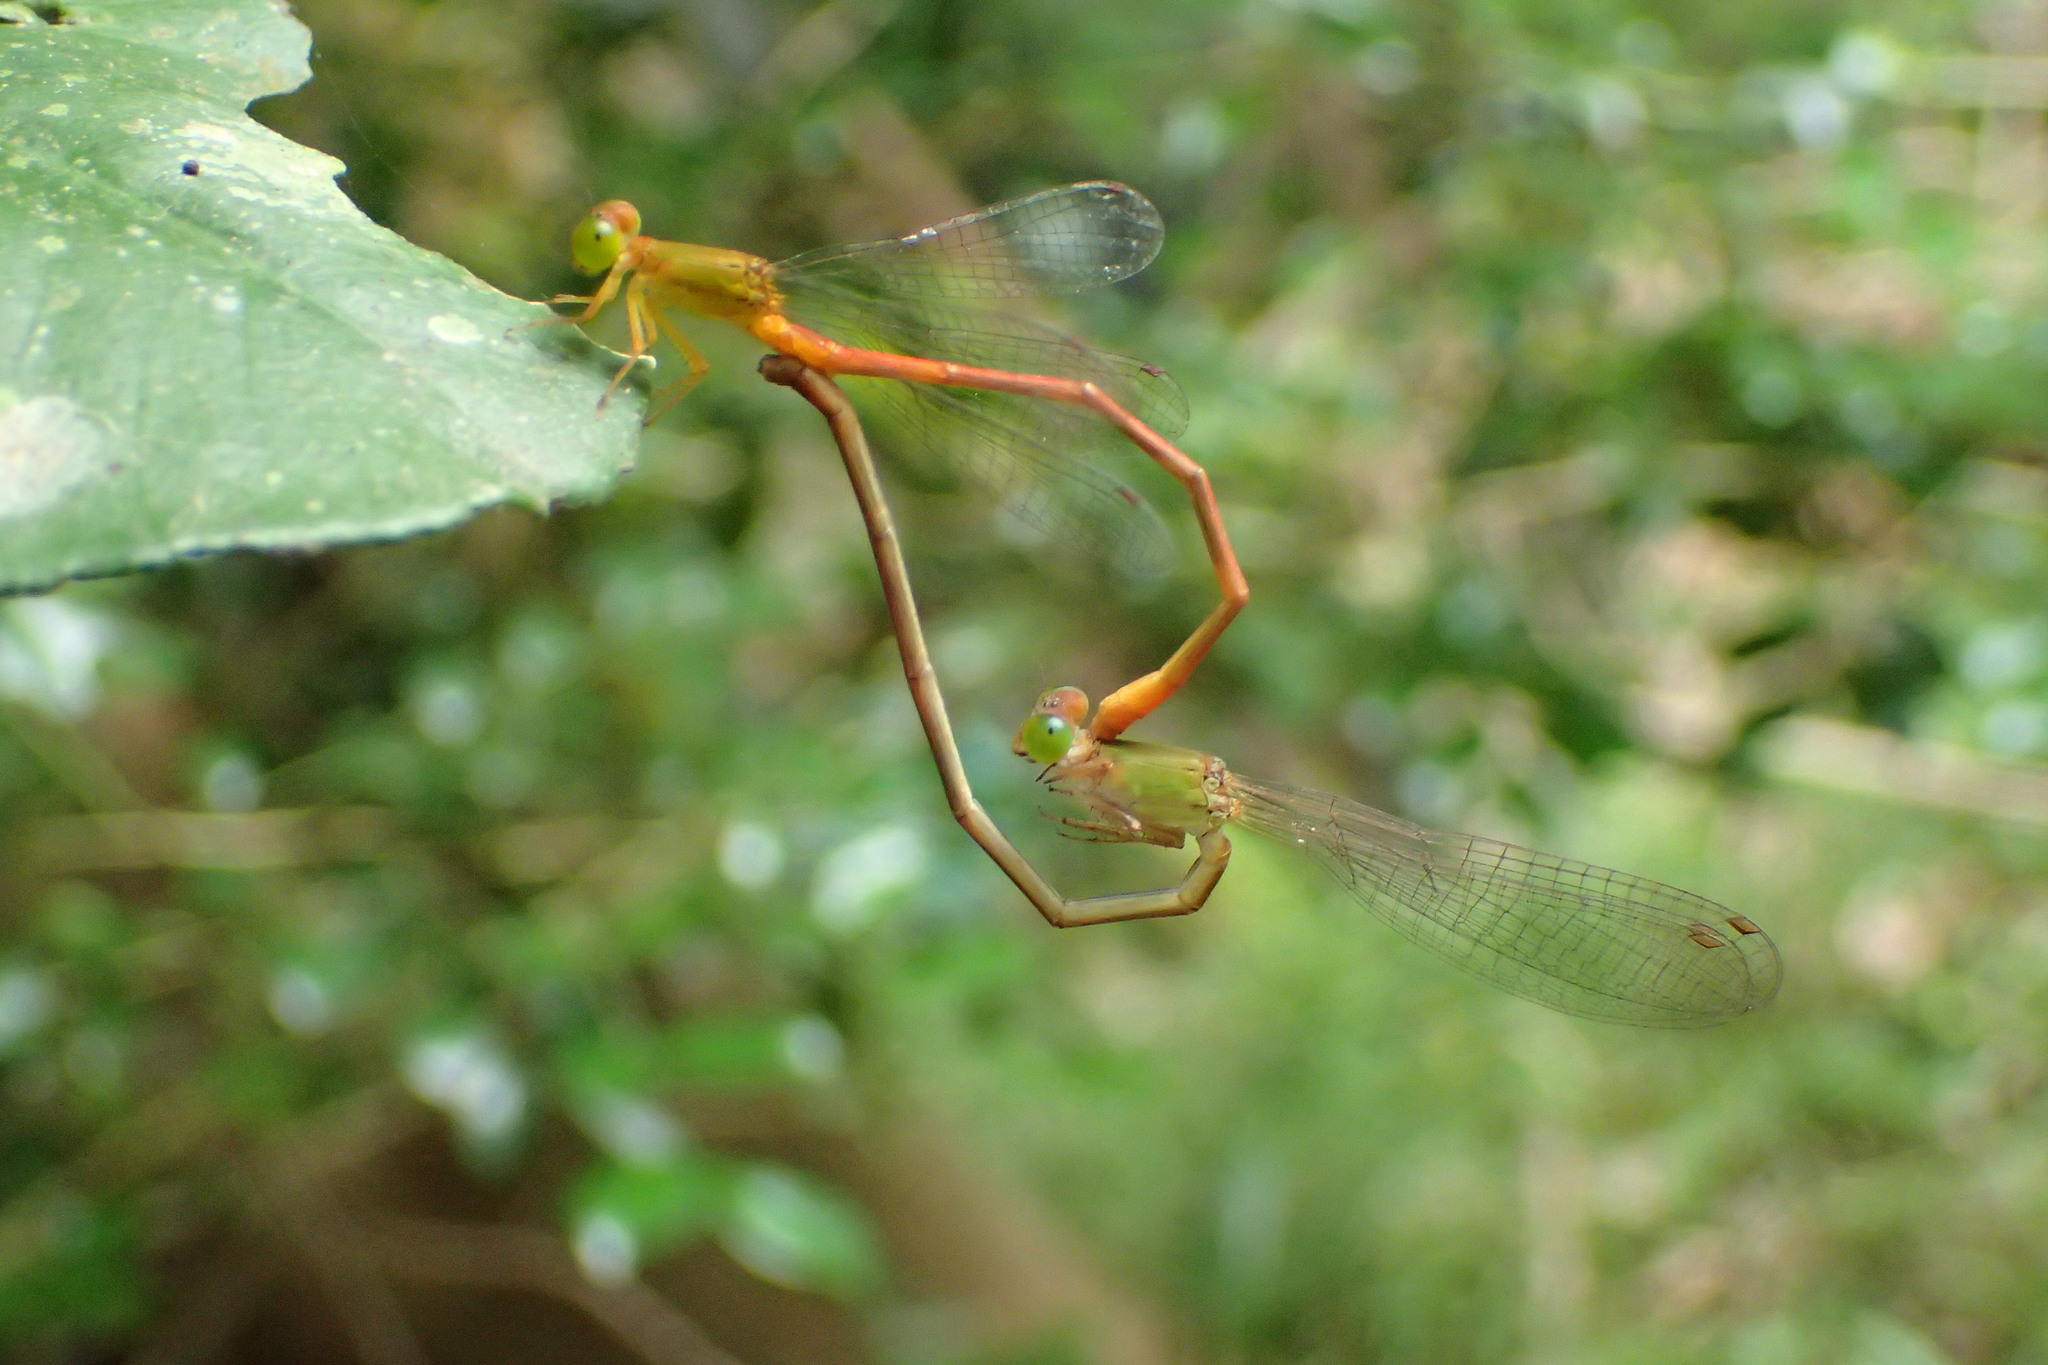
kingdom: Animalia
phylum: Arthropoda
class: Insecta
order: Odonata
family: Coenagrionidae
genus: Ceriagrion
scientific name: Ceriagrion auranticum
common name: Orange-tailed sprite
